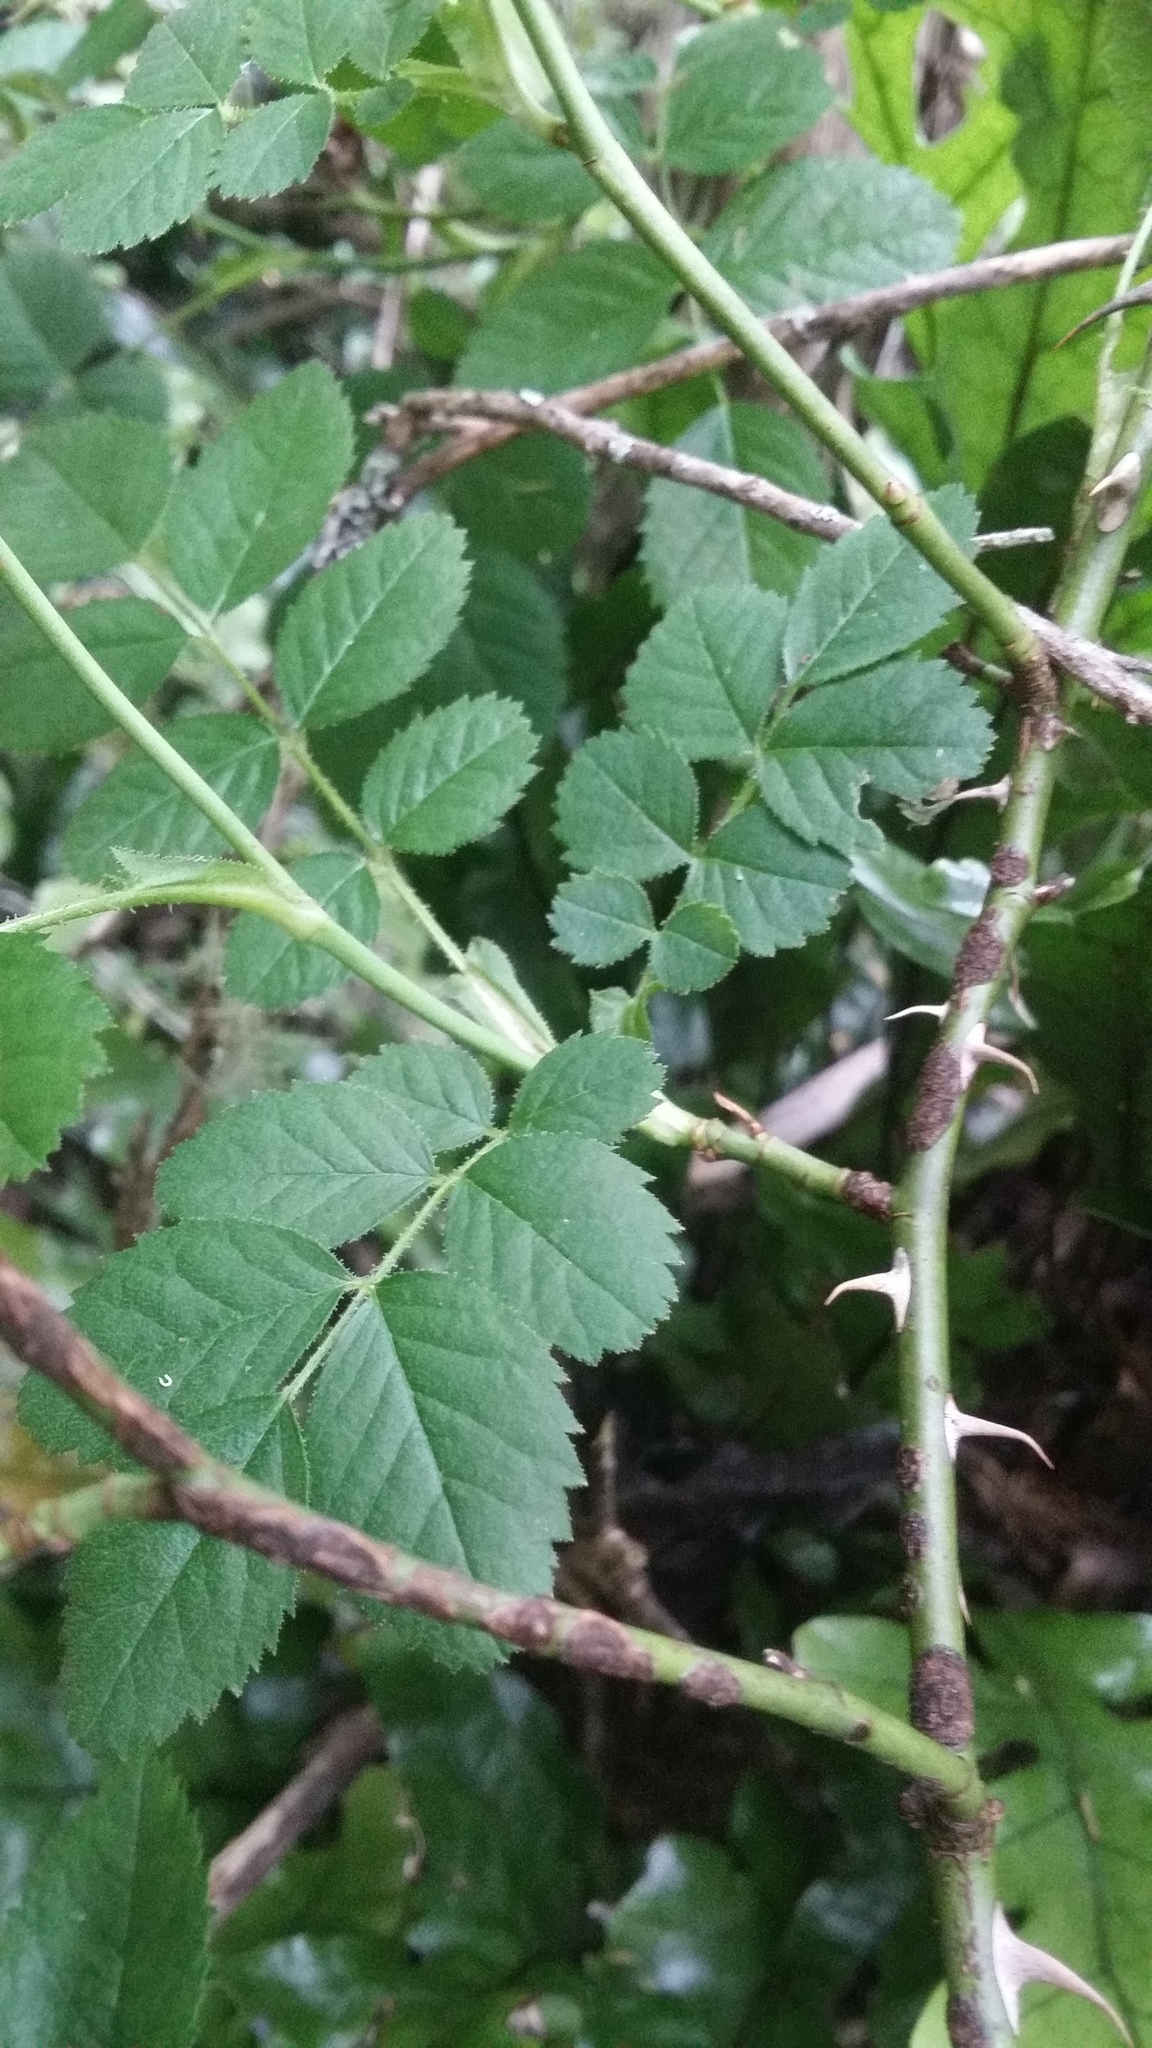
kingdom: Plantae
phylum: Tracheophyta
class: Magnoliopsida
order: Rosales
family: Rosaceae
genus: Rosa
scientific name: Rosa rubiginosa
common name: Sweet-briar
